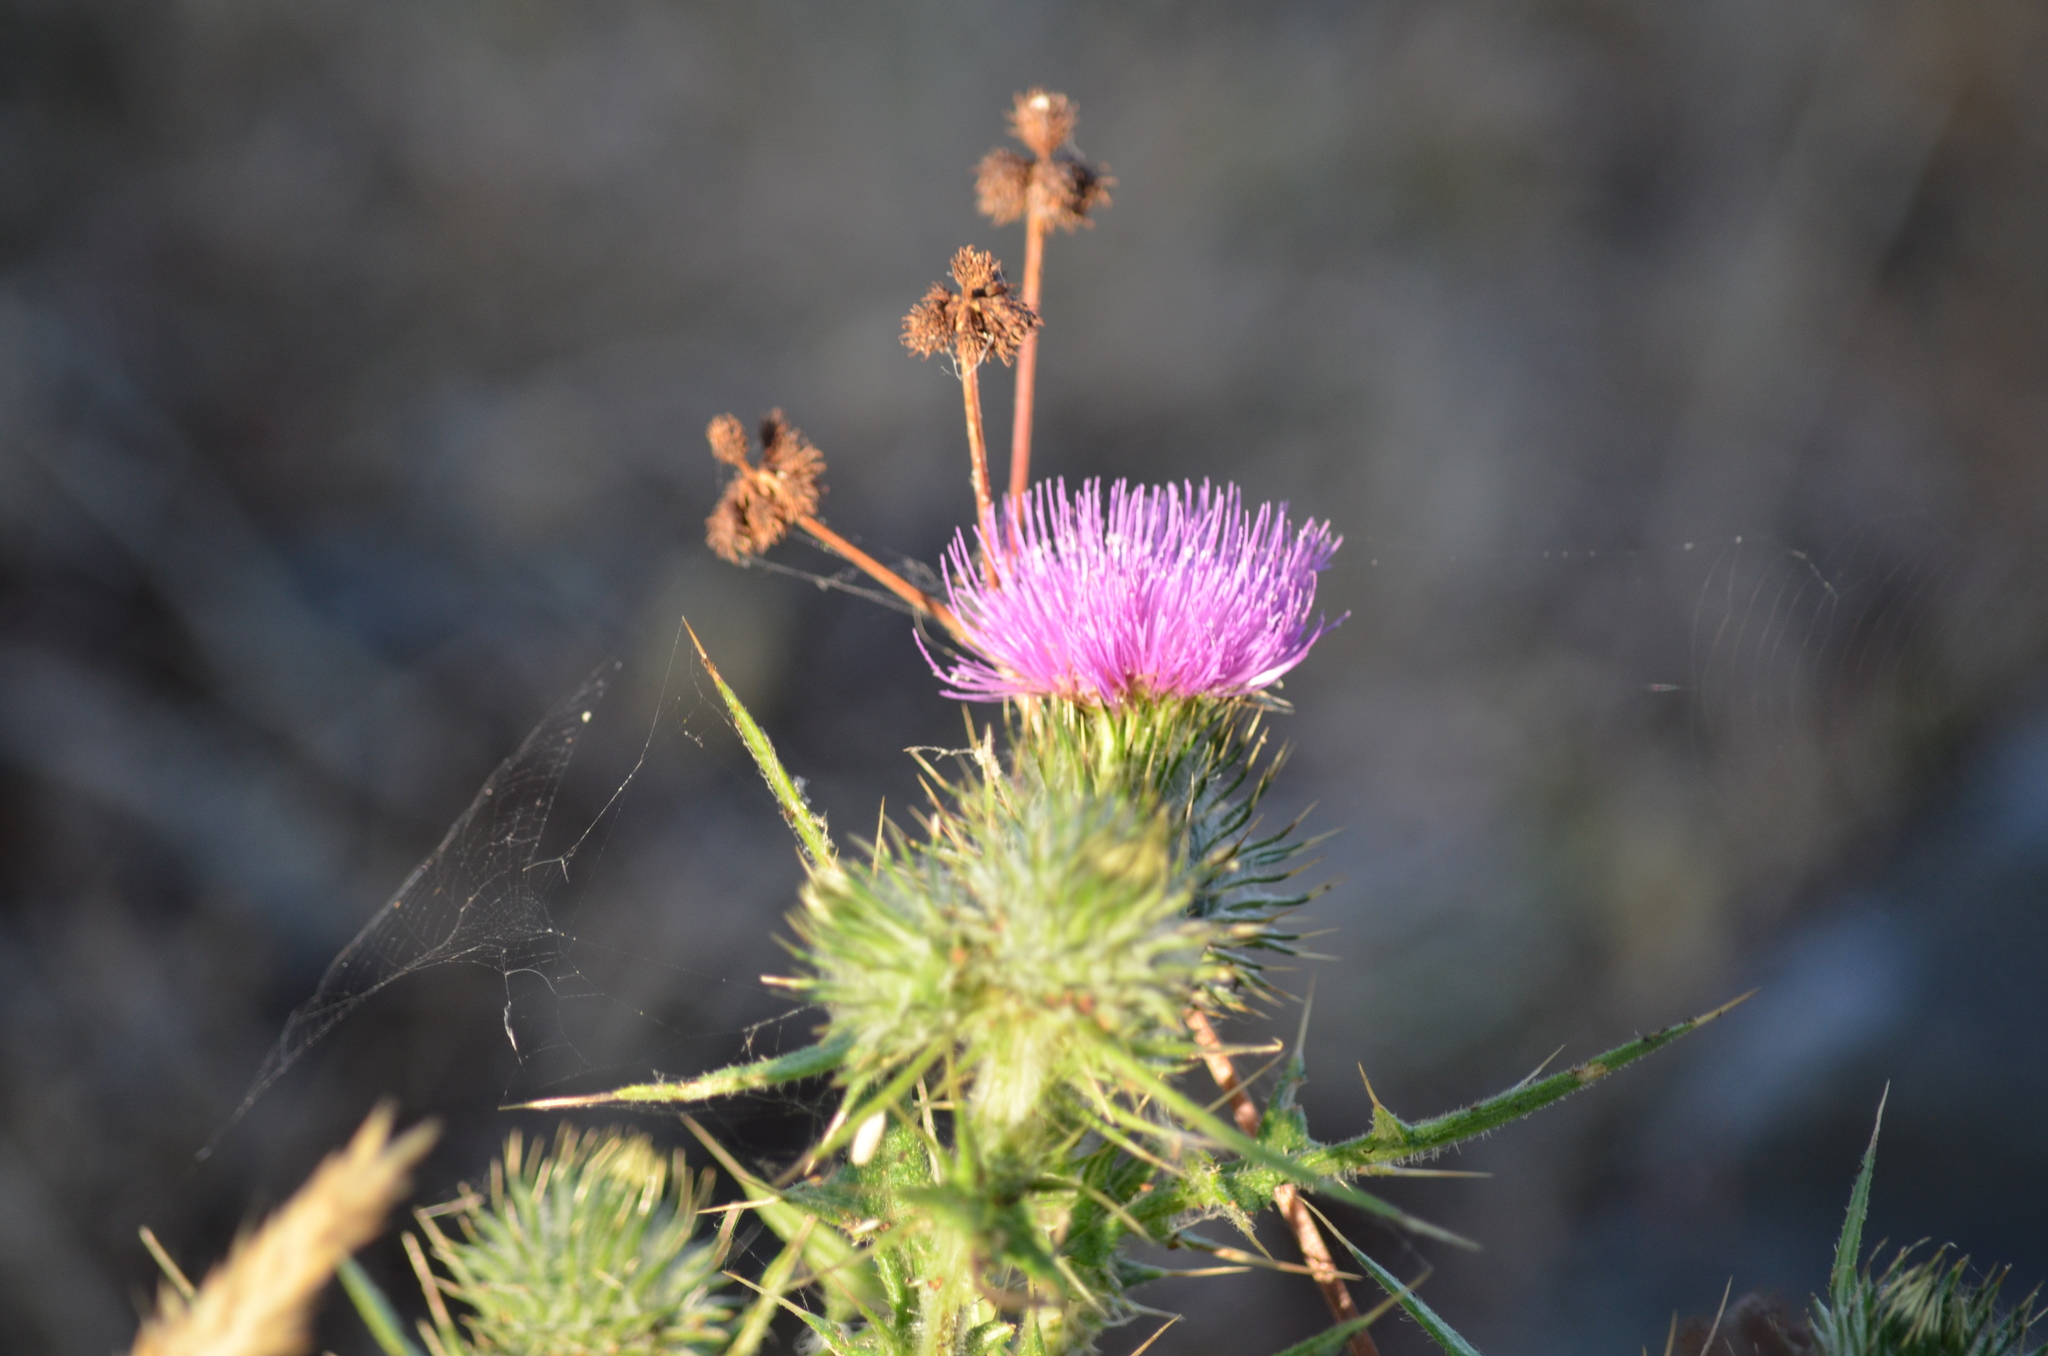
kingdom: Plantae
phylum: Tracheophyta
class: Magnoliopsida
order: Asterales
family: Asteraceae
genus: Cirsium
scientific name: Cirsium vulgare
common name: Bull thistle
